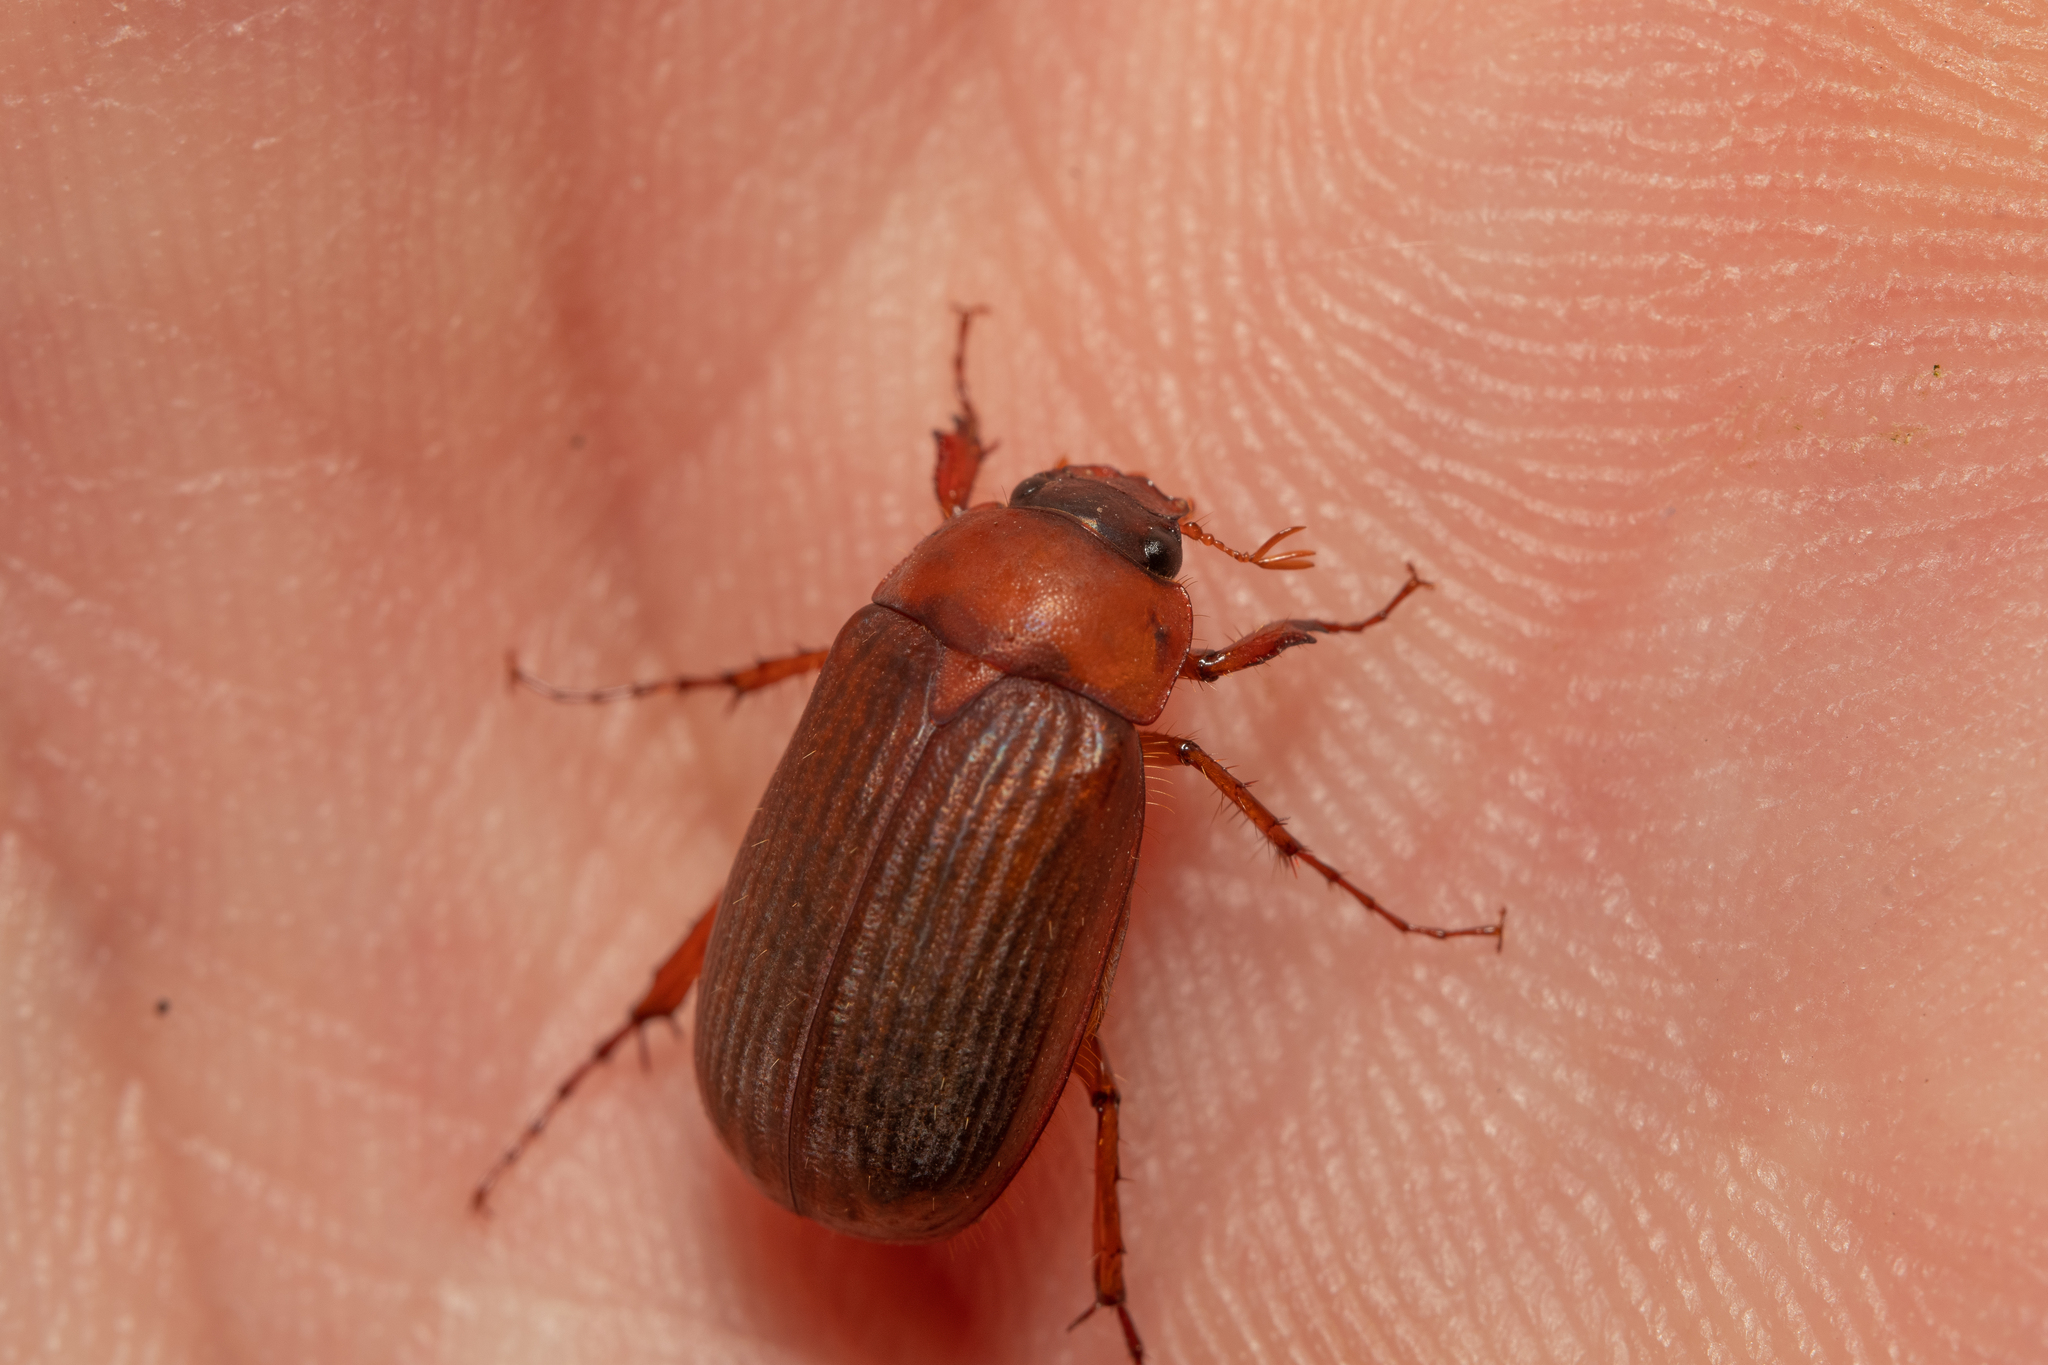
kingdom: Animalia
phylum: Arthropoda
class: Insecta
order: Coleoptera
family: Scarabaeidae
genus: Serica
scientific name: Serica brunnea
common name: Brown chafer
